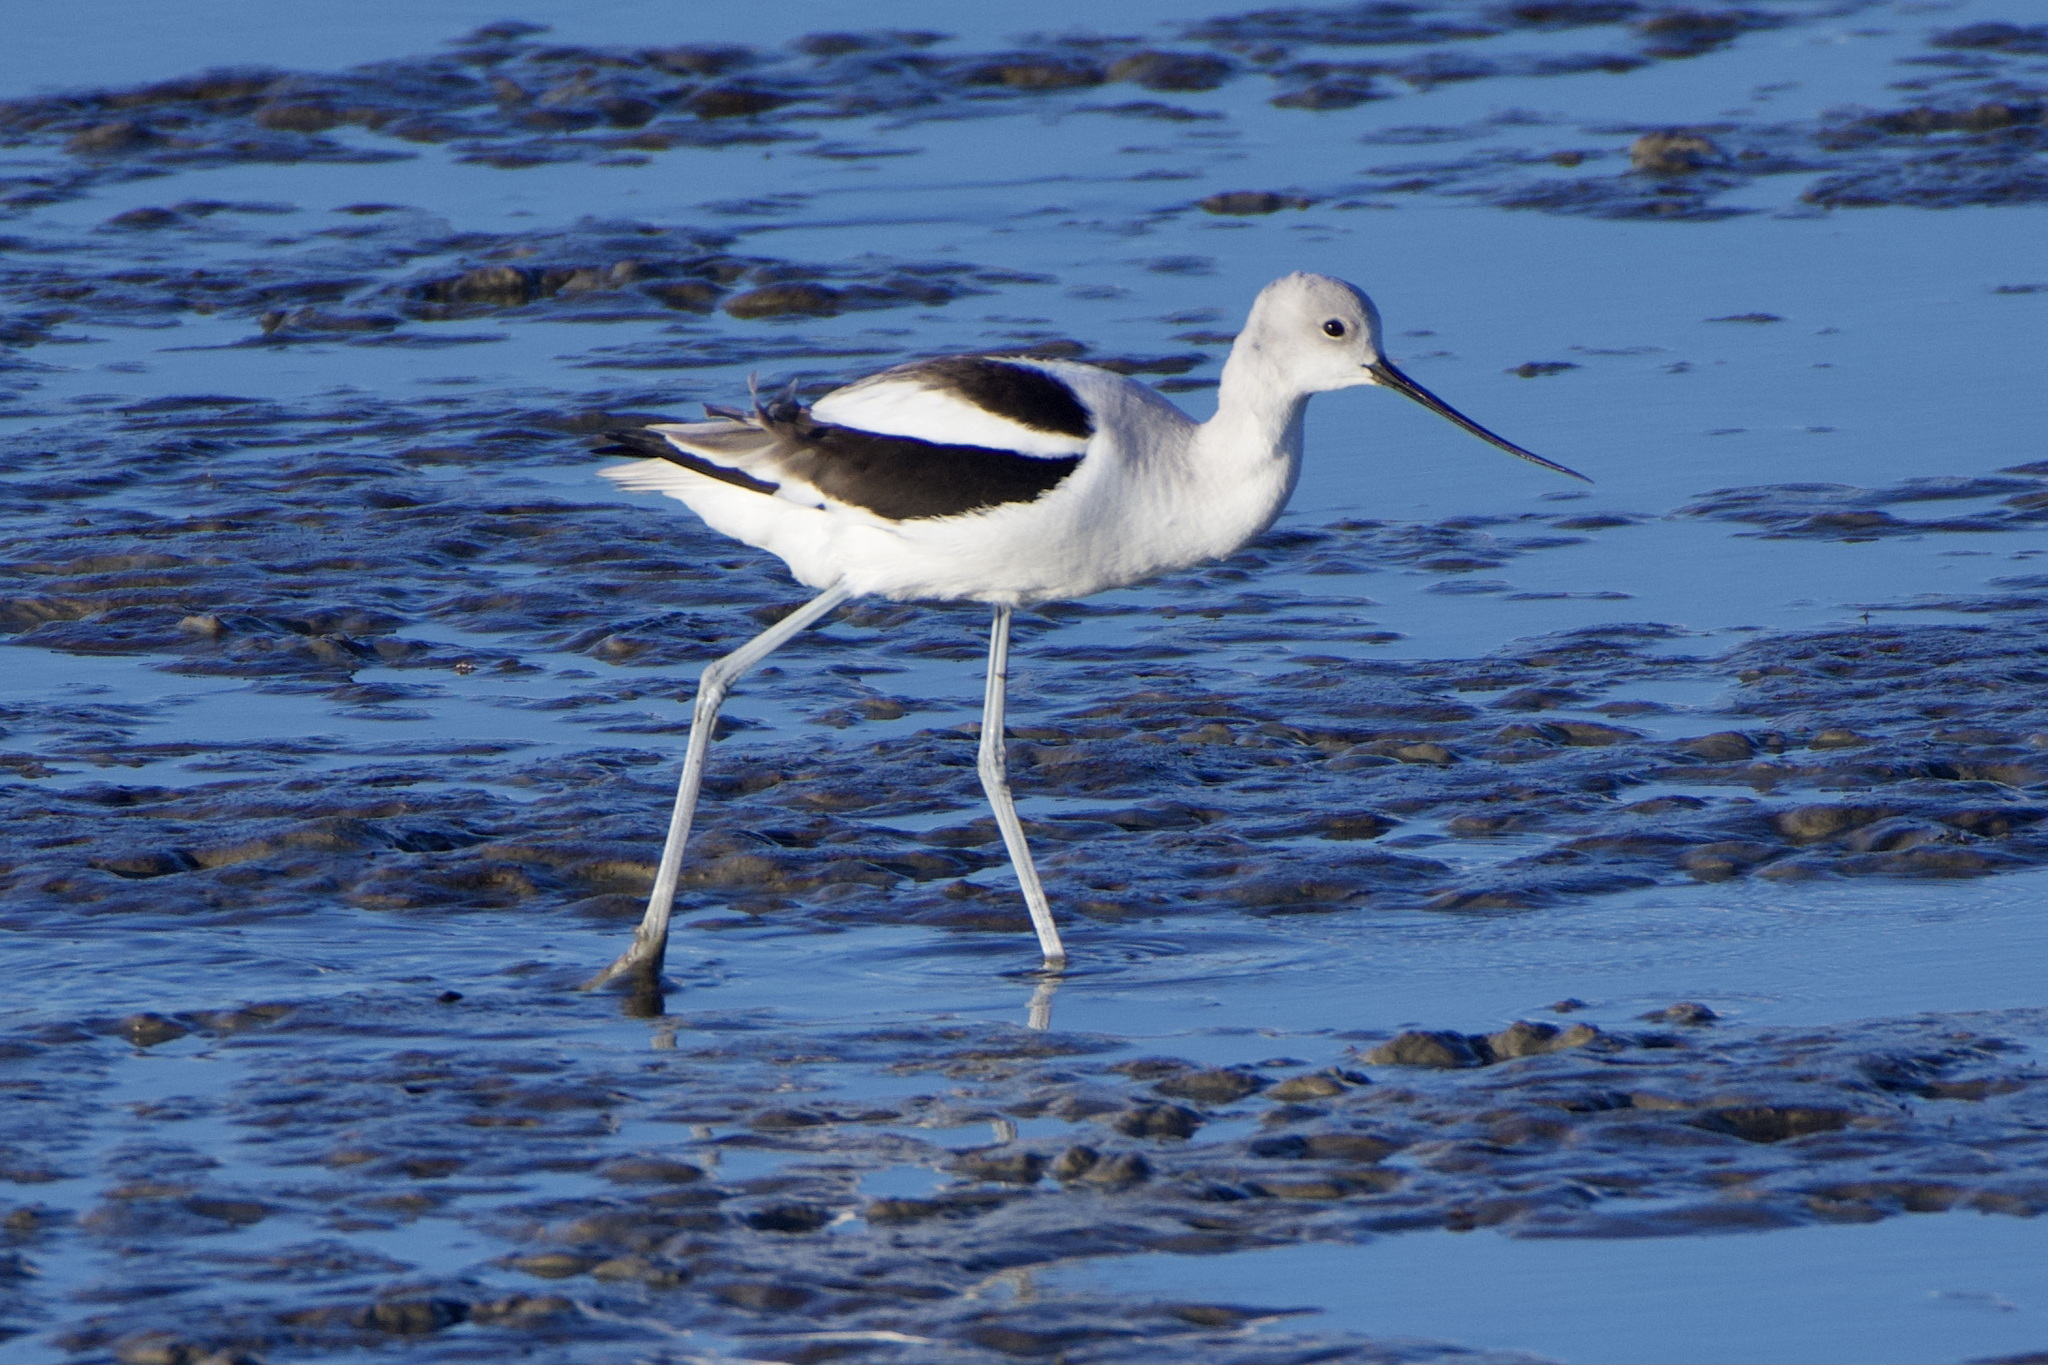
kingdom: Animalia
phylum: Chordata
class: Aves
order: Charadriiformes
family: Recurvirostridae
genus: Recurvirostra
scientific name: Recurvirostra americana
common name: American avocet
